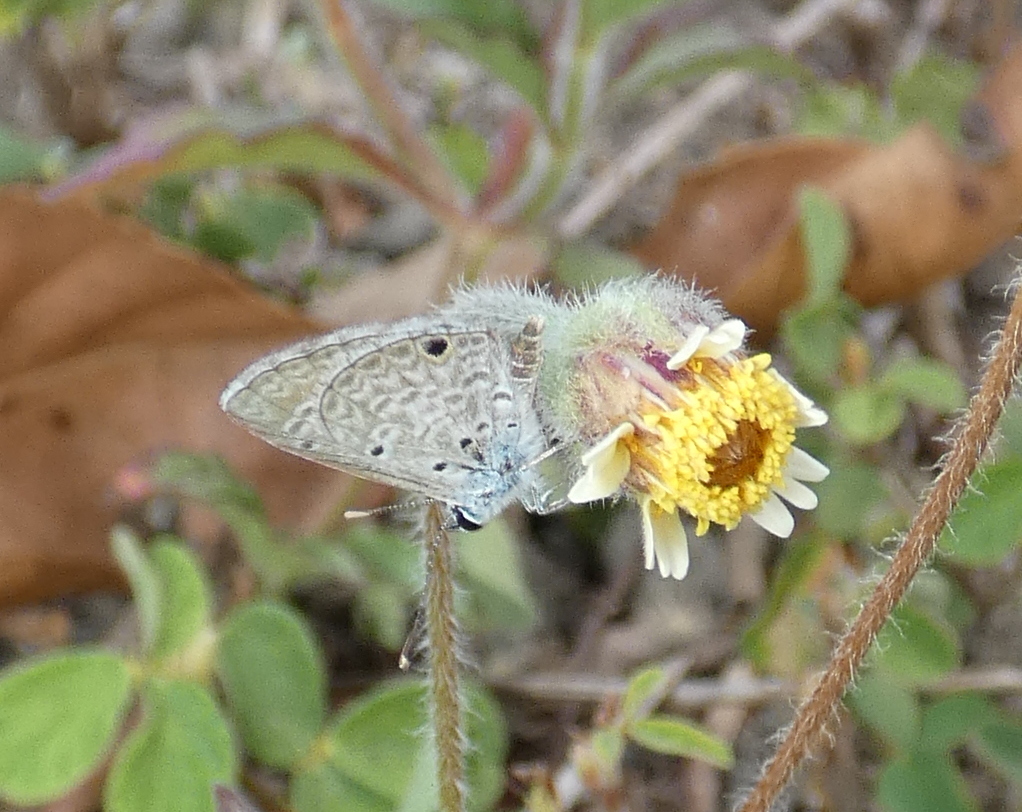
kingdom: Animalia
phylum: Arthropoda
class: Insecta
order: Lepidoptera
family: Lycaenidae
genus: Hemiargus
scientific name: Hemiargus hanno
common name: Common blue
